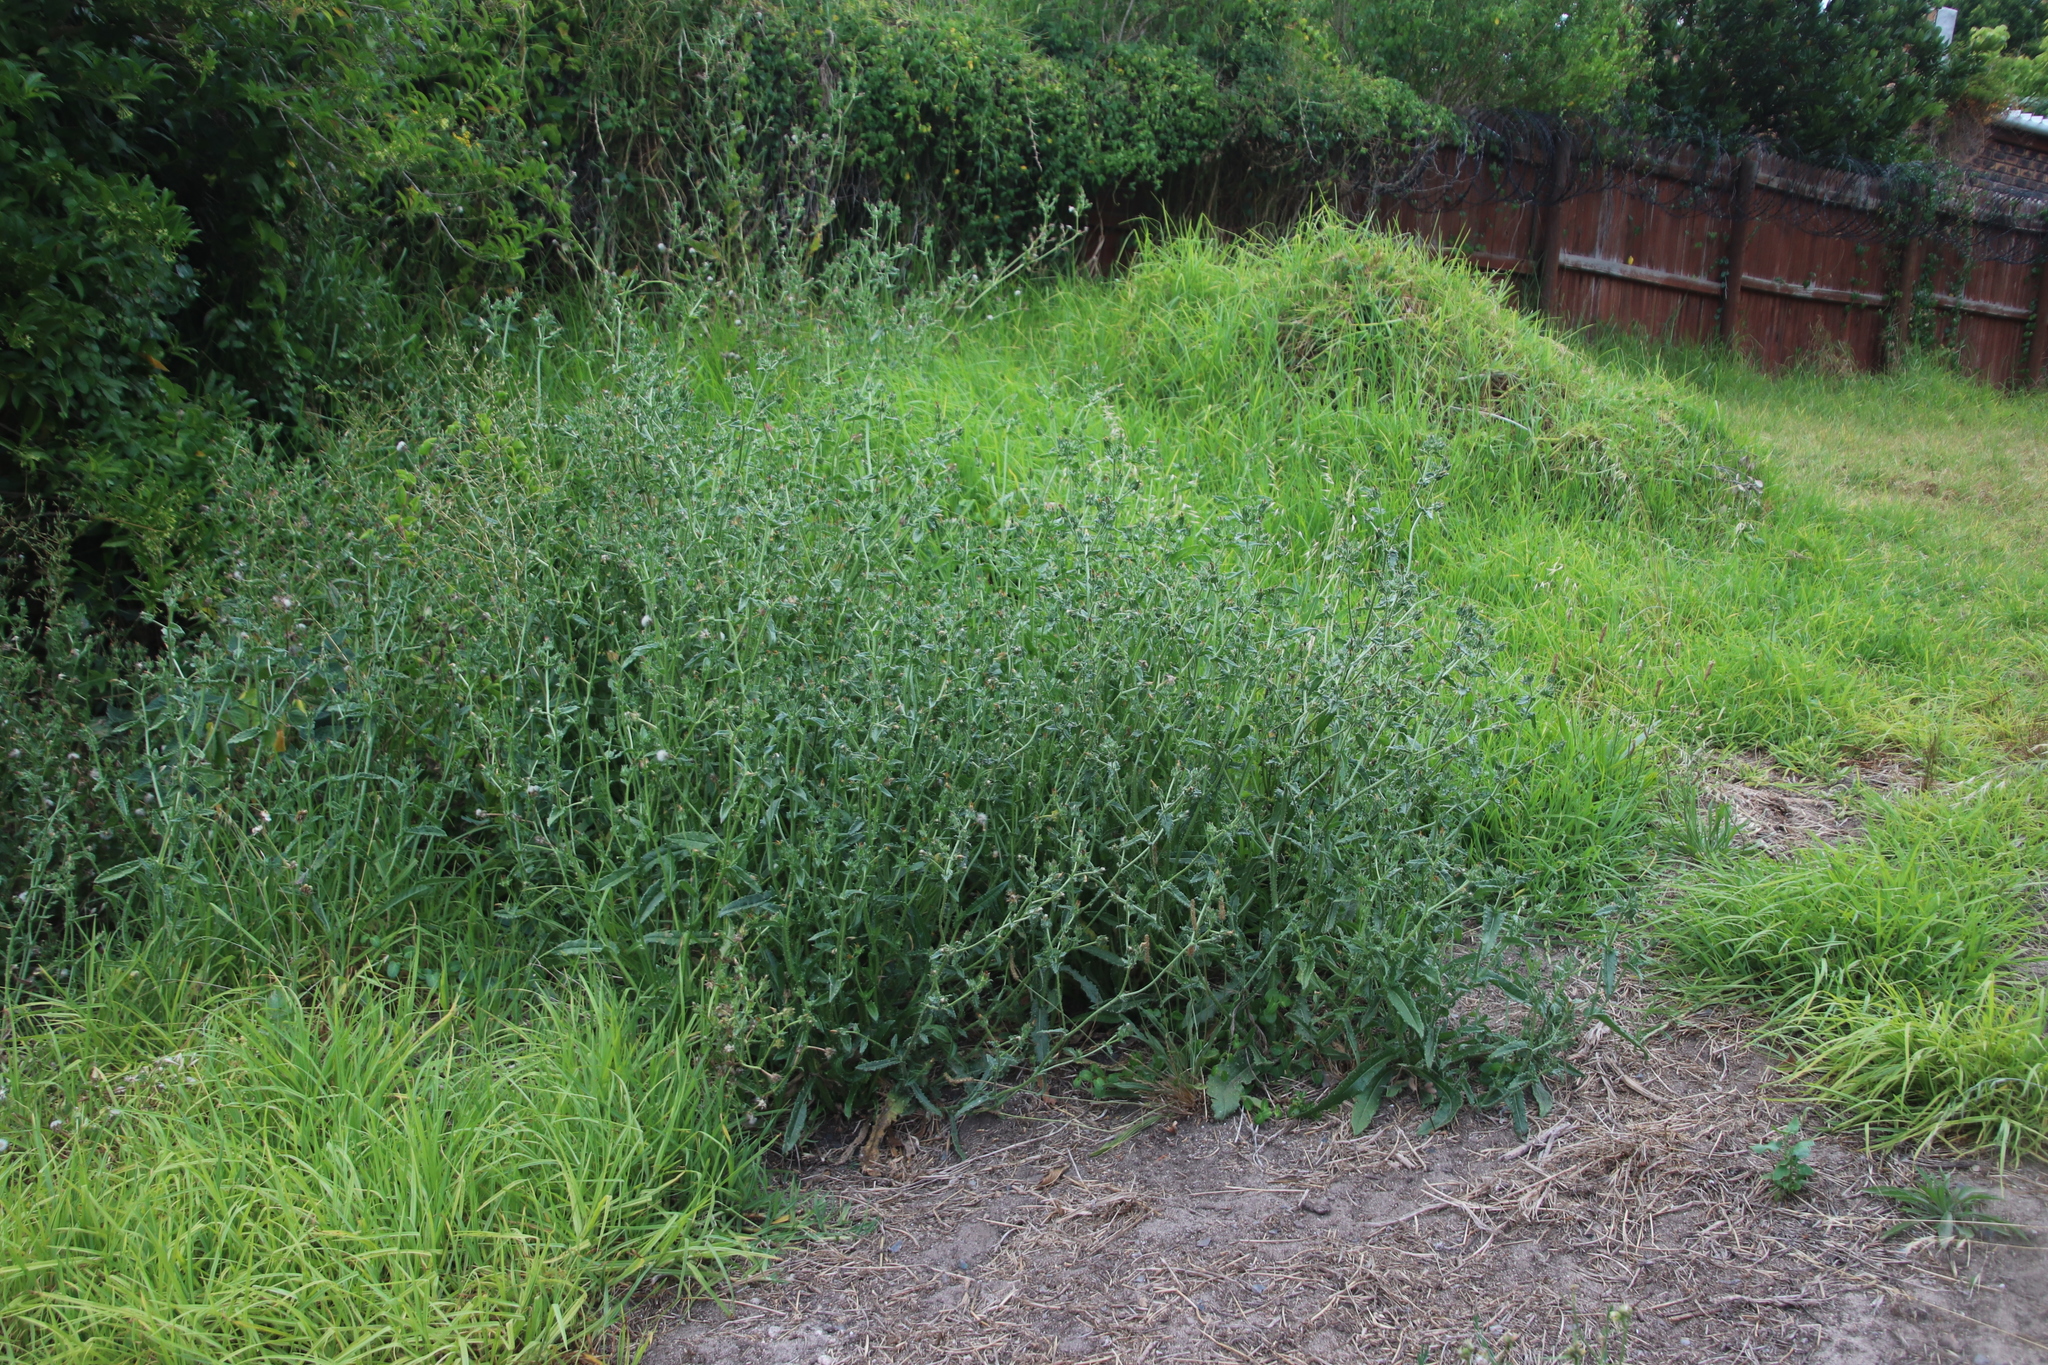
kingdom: Plantae
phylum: Tracheophyta
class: Magnoliopsida
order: Asterales
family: Asteraceae
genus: Helminthotheca
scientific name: Helminthotheca echioides
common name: Ox-tongue
